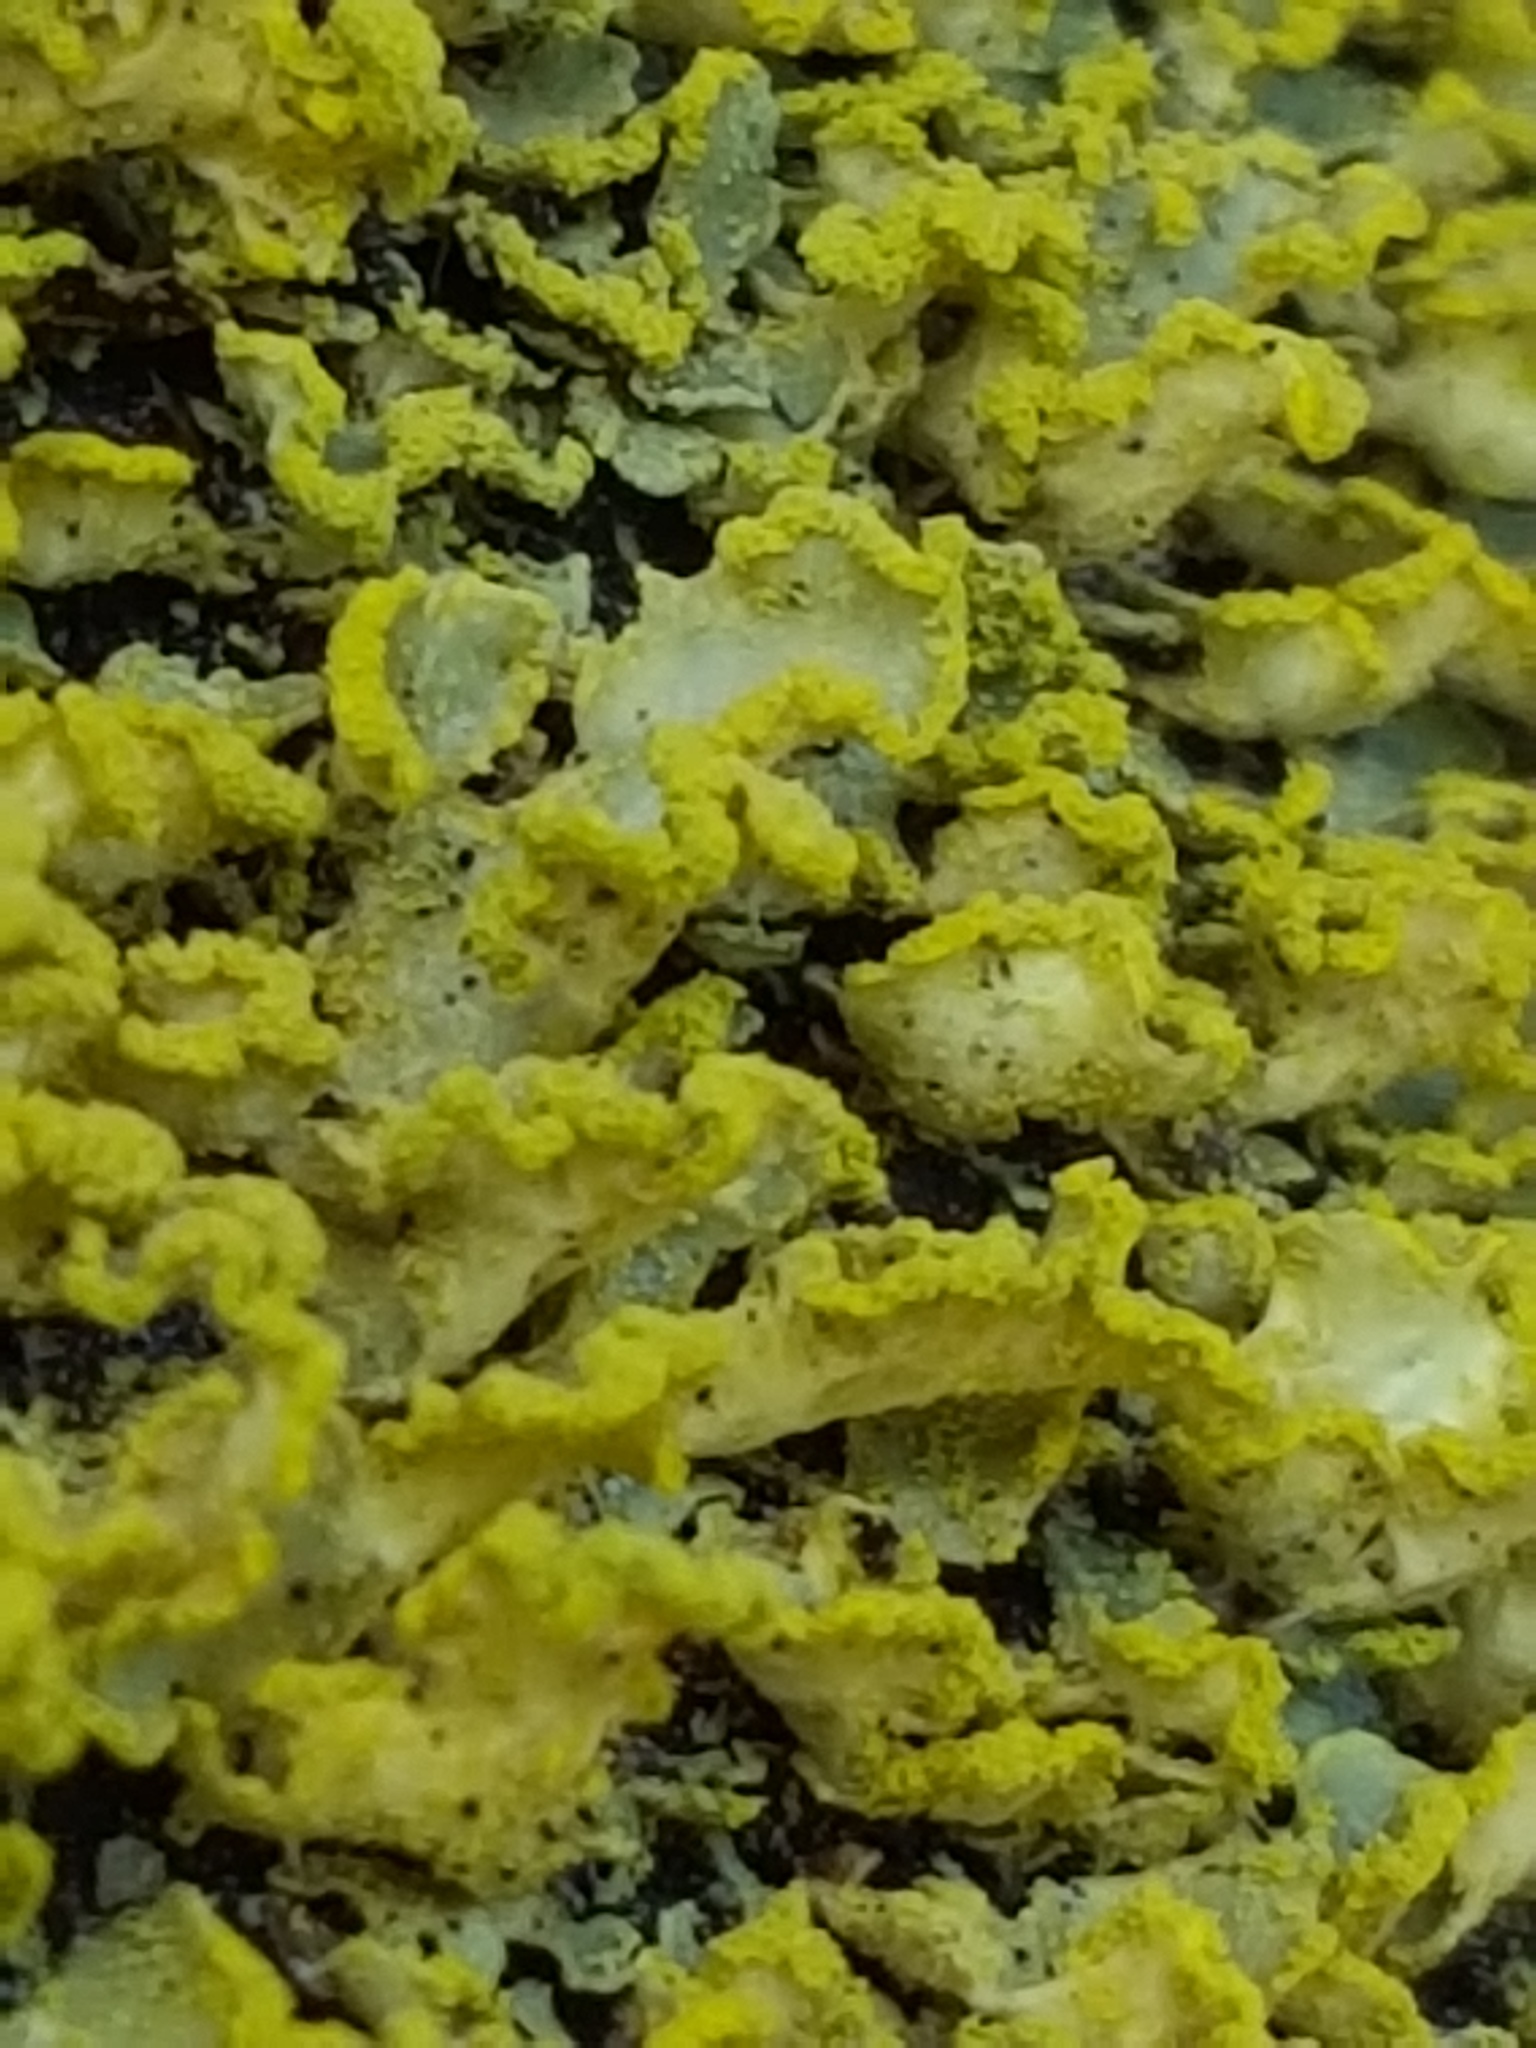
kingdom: Fungi
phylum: Ascomycota
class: Lecanoromycetes
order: Lecanorales
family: Parmeliaceae
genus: Vulpicida
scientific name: Vulpicida pinastri
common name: Powdered sunshine lichen
